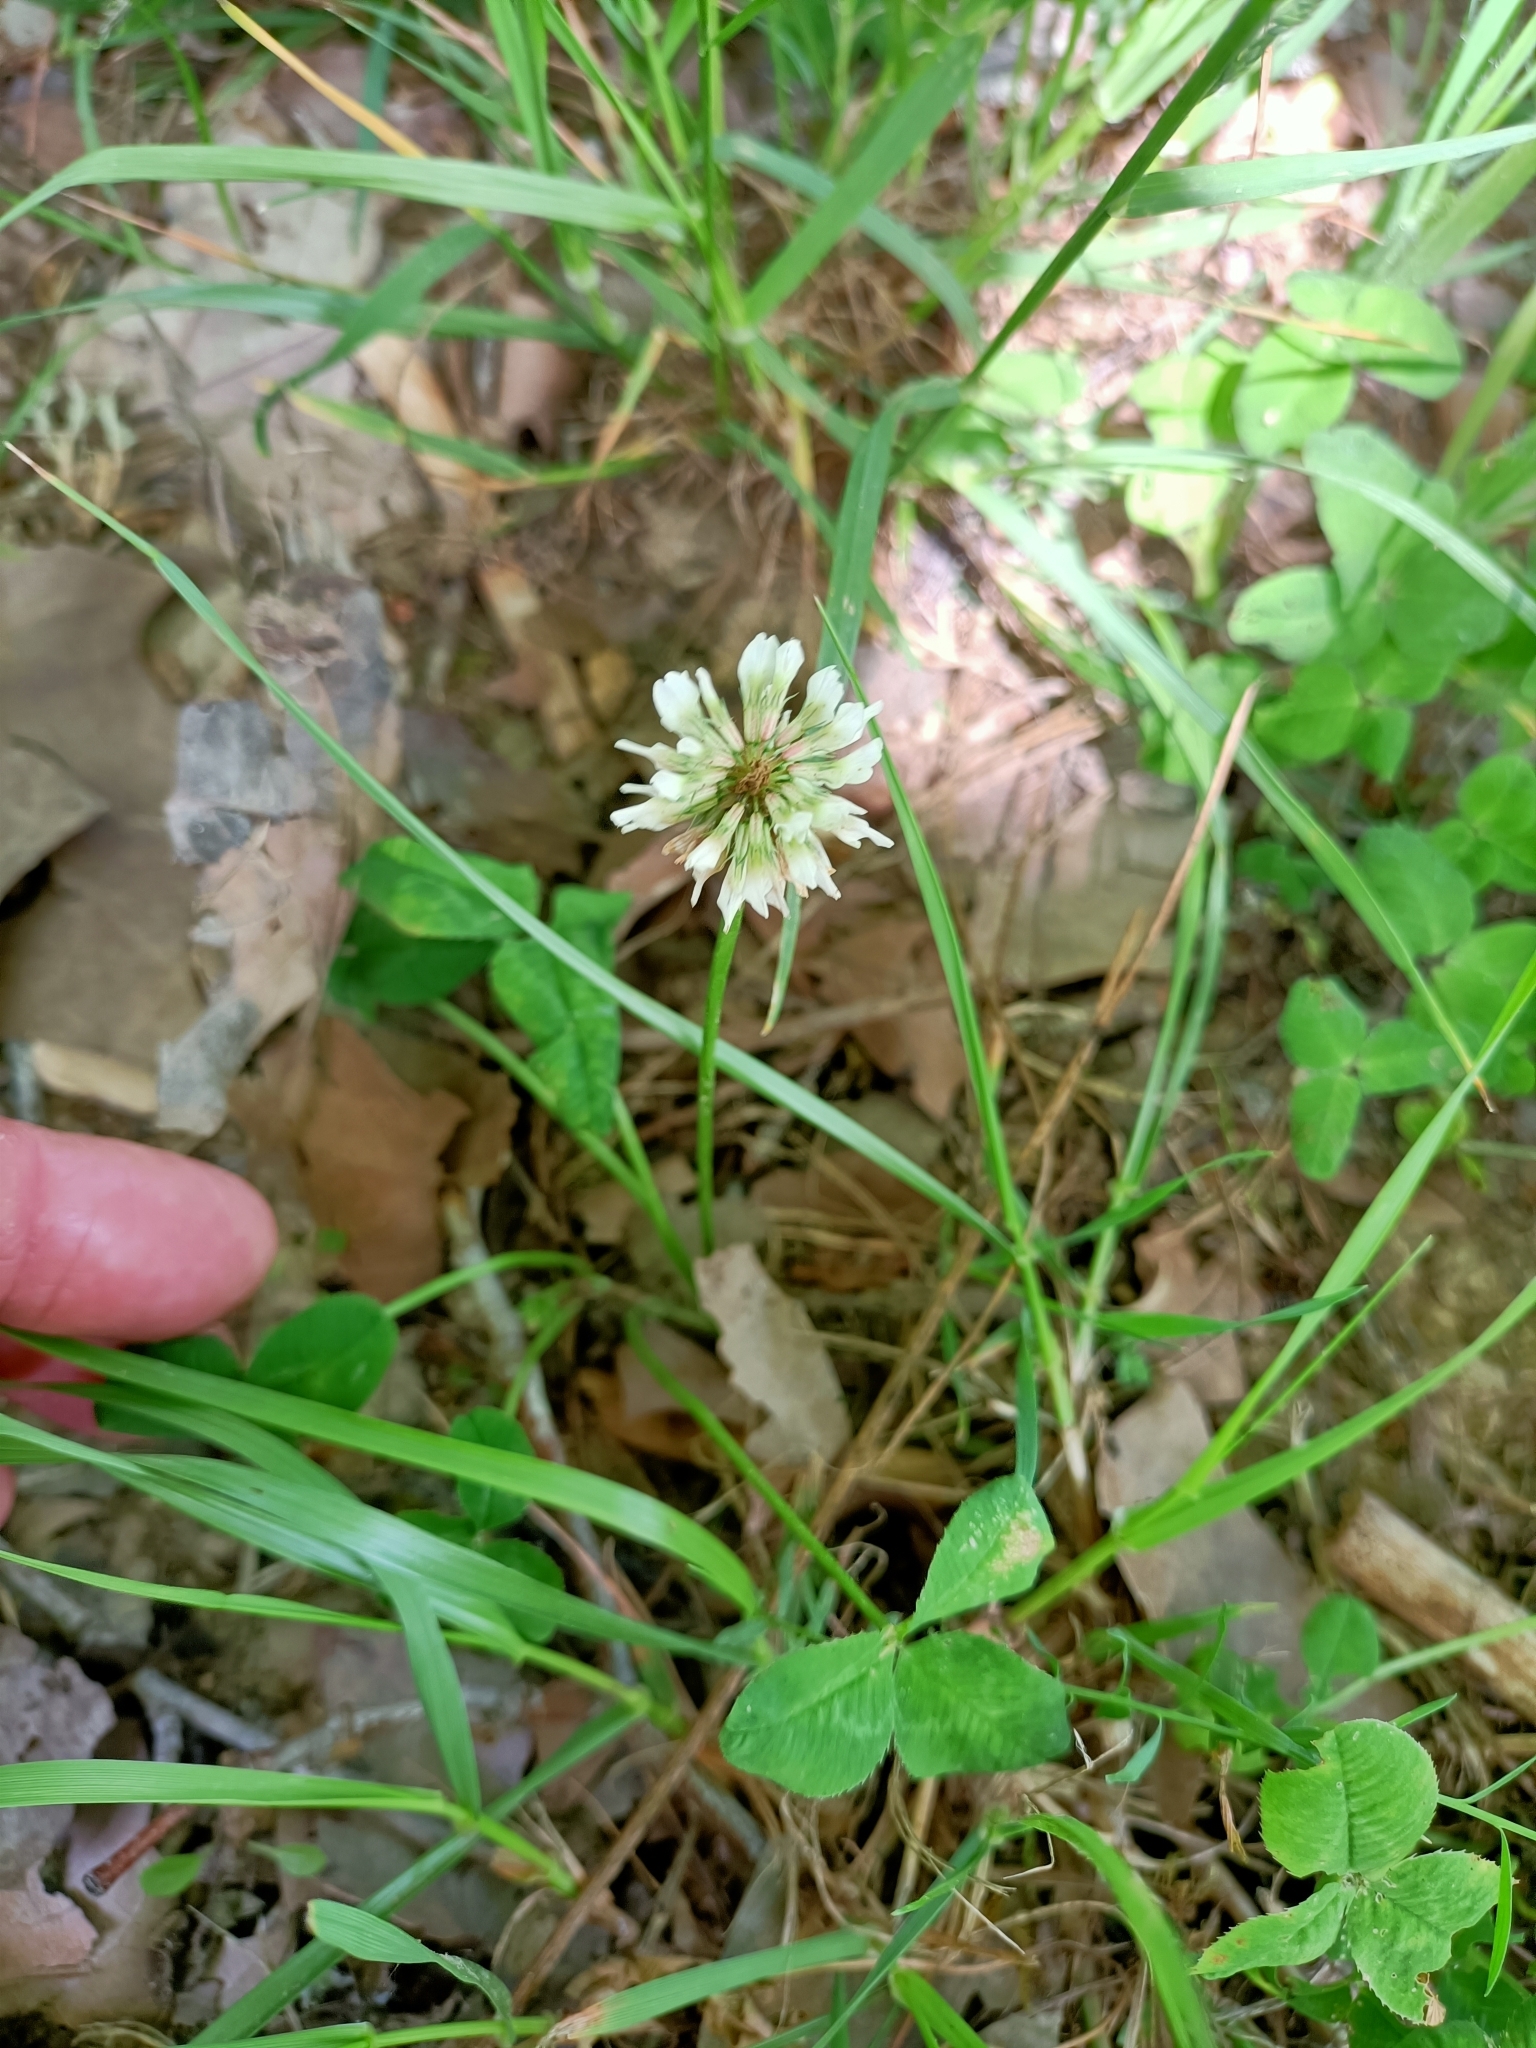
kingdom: Plantae
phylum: Tracheophyta
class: Magnoliopsida
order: Fabales
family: Fabaceae
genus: Trifolium
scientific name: Trifolium repens
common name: White clover
